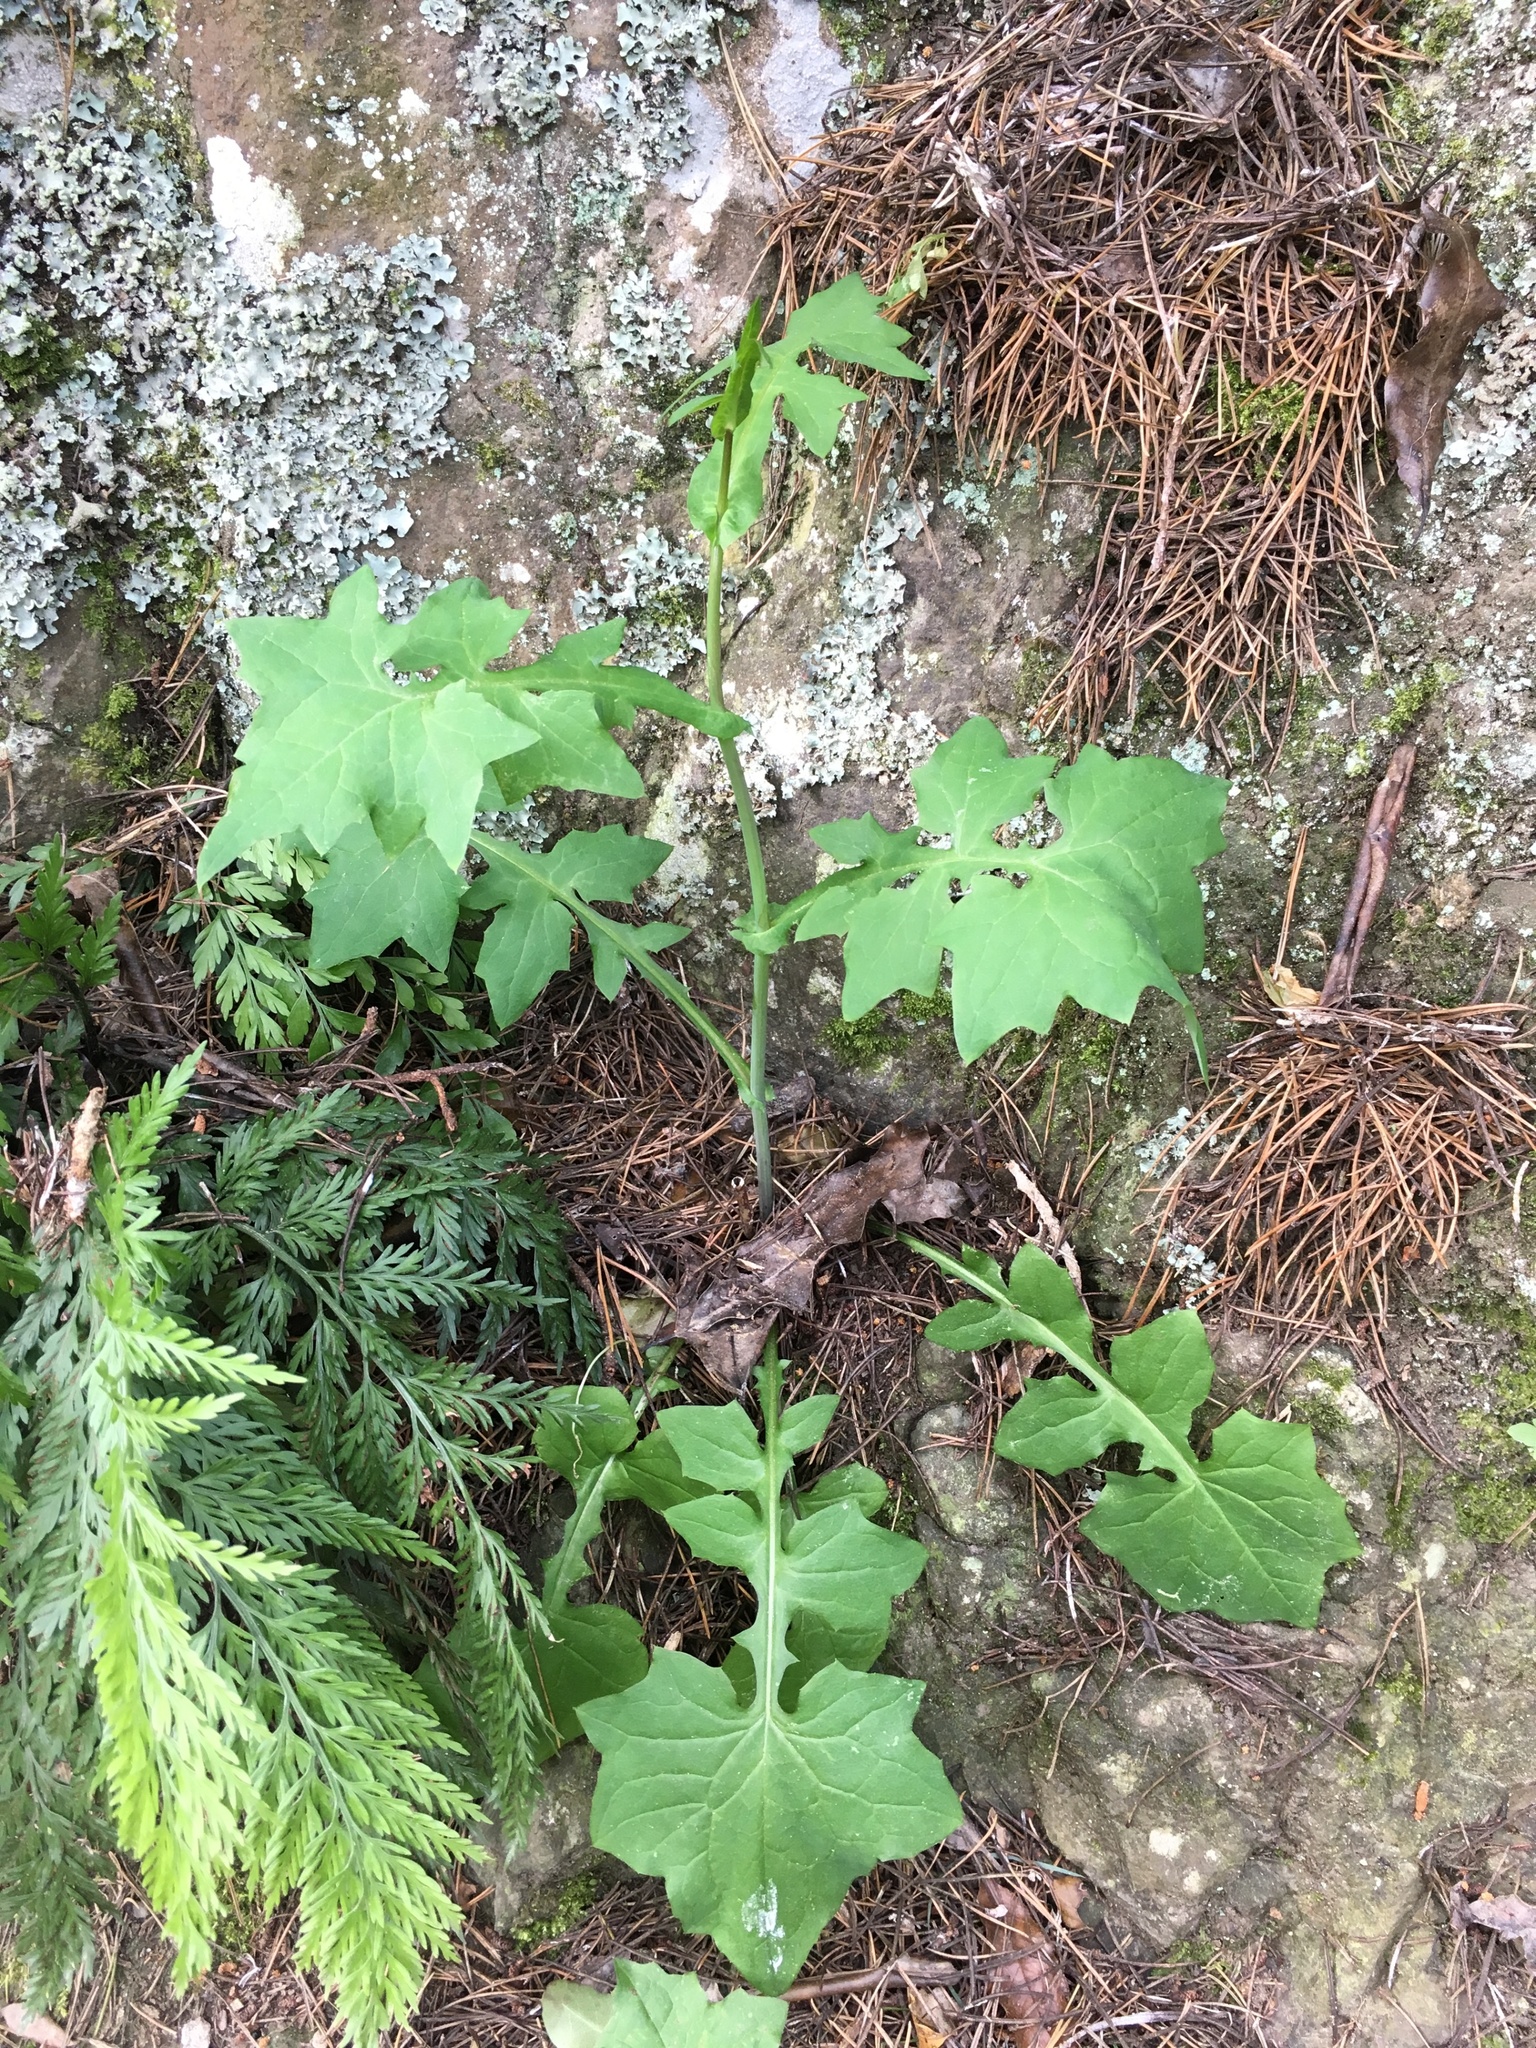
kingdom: Plantae
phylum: Tracheophyta
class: Magnoliopsida
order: Asterales
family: Asteraceae
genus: Mycelis
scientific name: Mycelis muralis
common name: Wall lettuce
